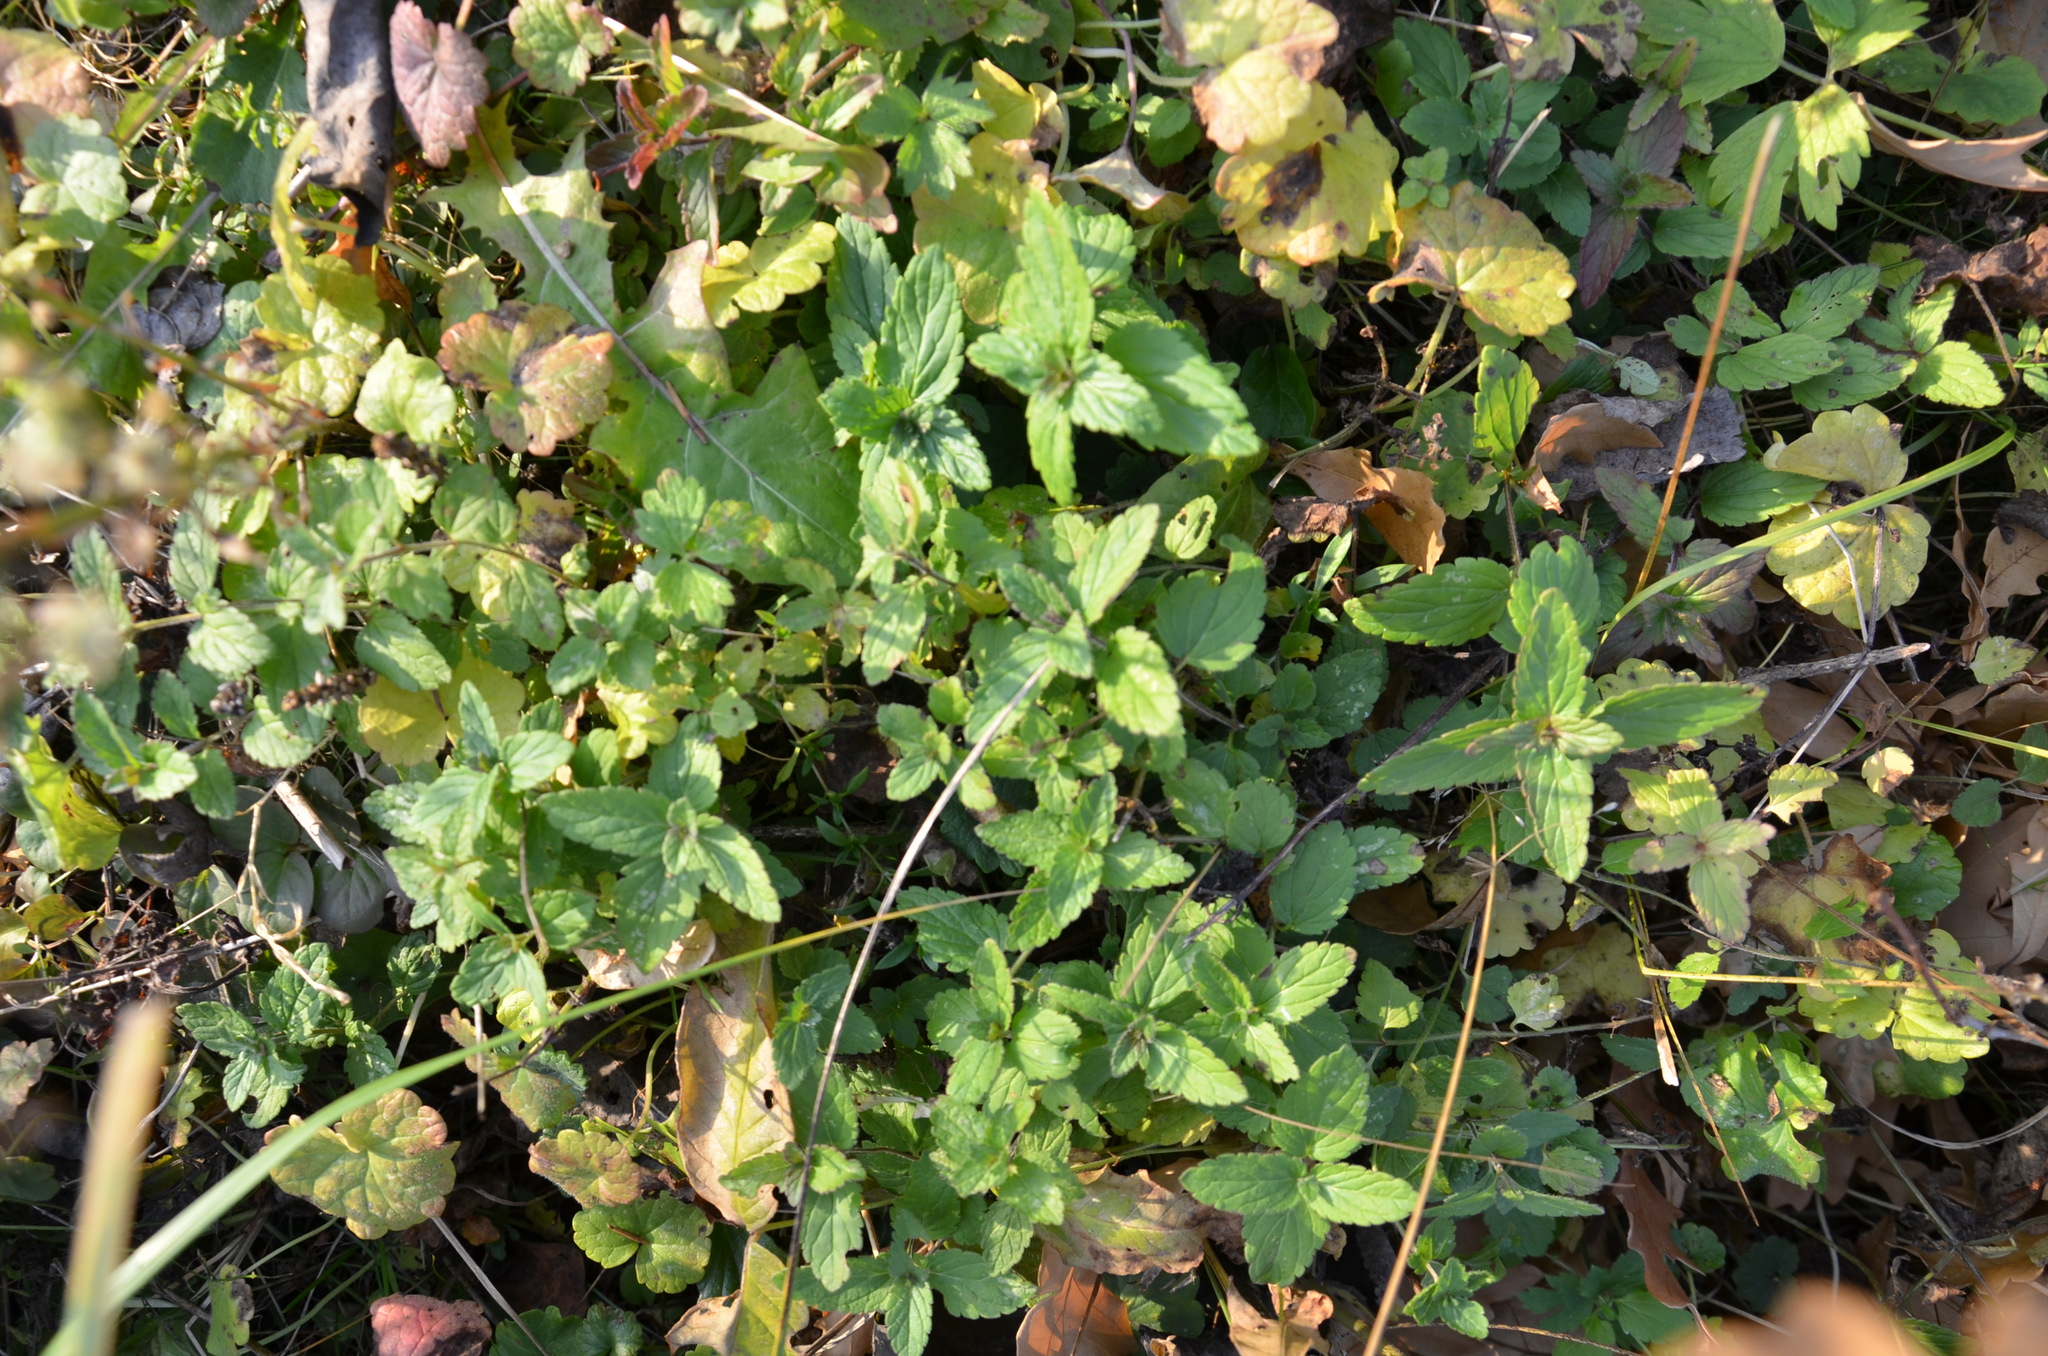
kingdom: Plantae
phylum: Tracheophyta
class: Magnoliopsida
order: Lamiales
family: Plantaginaceae
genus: Veronica
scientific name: Veronica chamaedrys
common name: Germander speedwell
